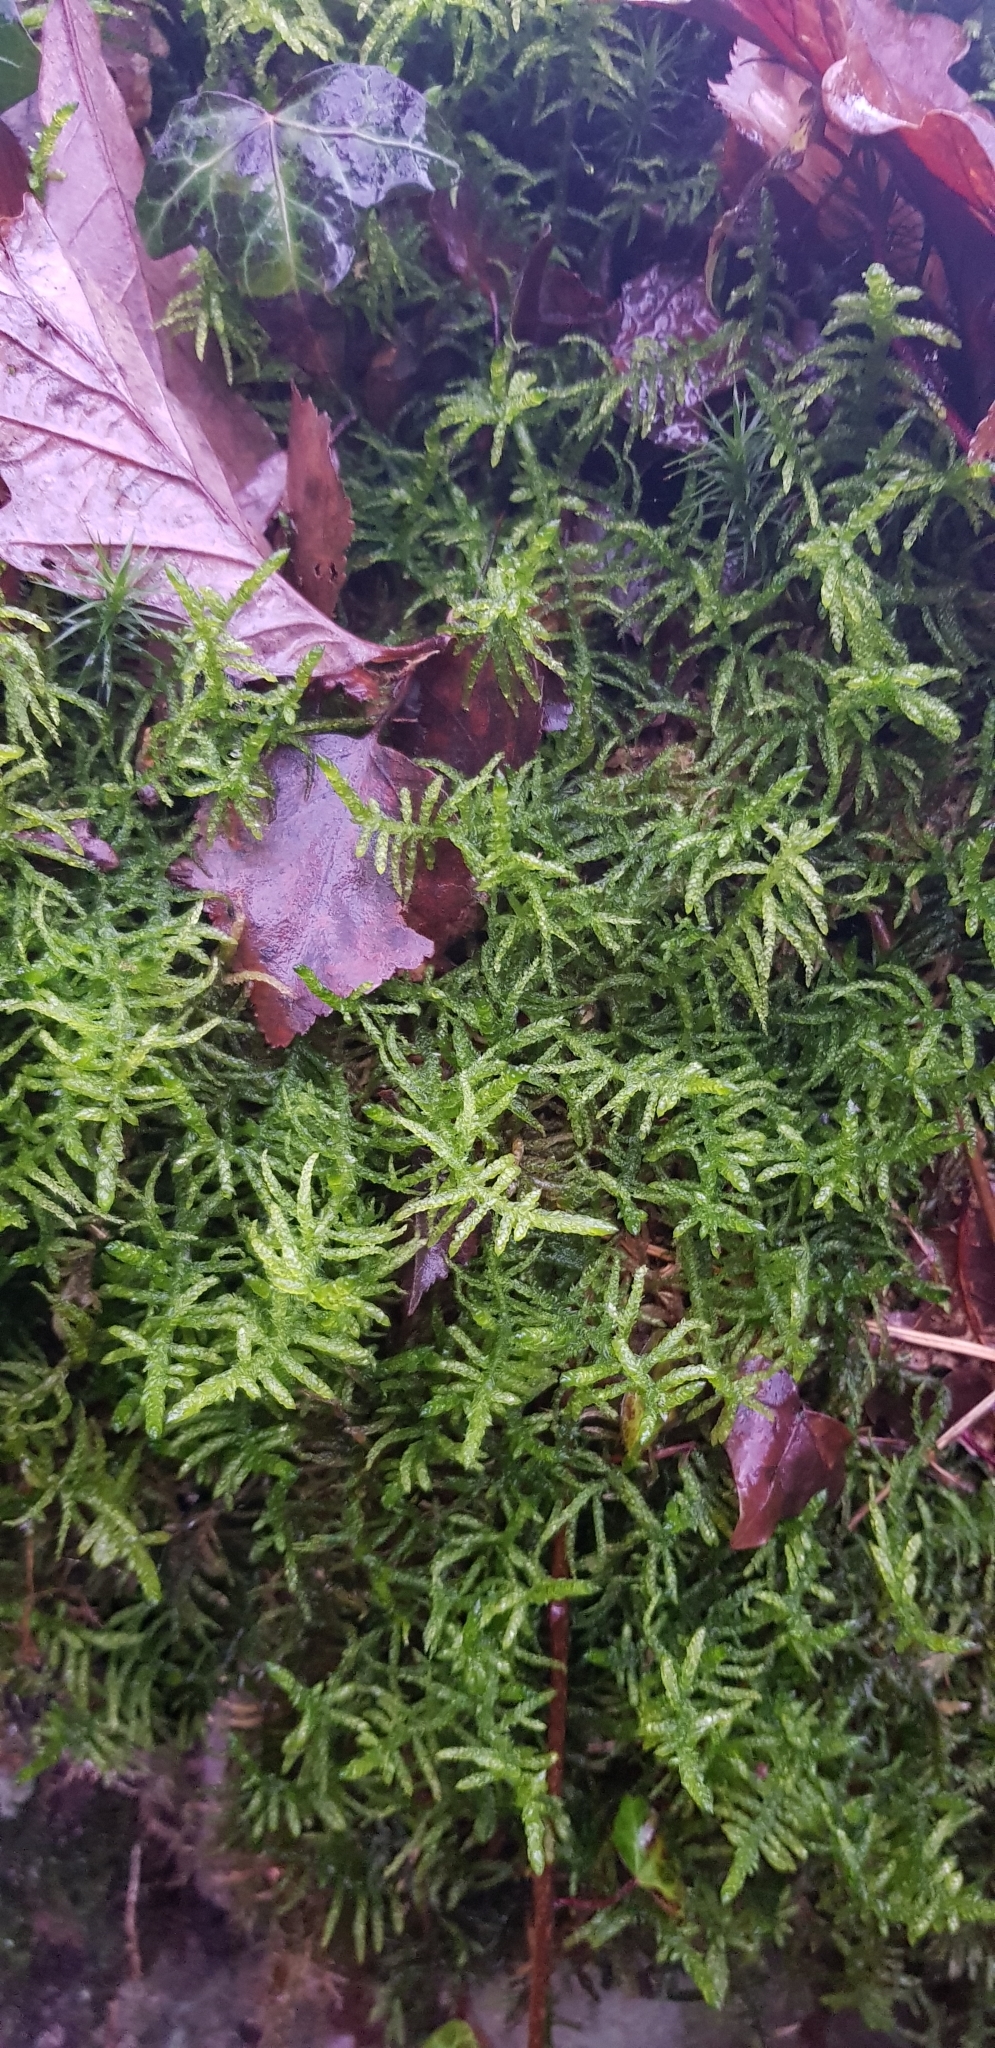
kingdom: Plantae
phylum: Bryophyta
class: Bryopsida
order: Hypnales
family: Brachytheciaceae
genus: Pseudoscleropodium
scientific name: Pseudoscleropodium purum
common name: Neat feather-moss
